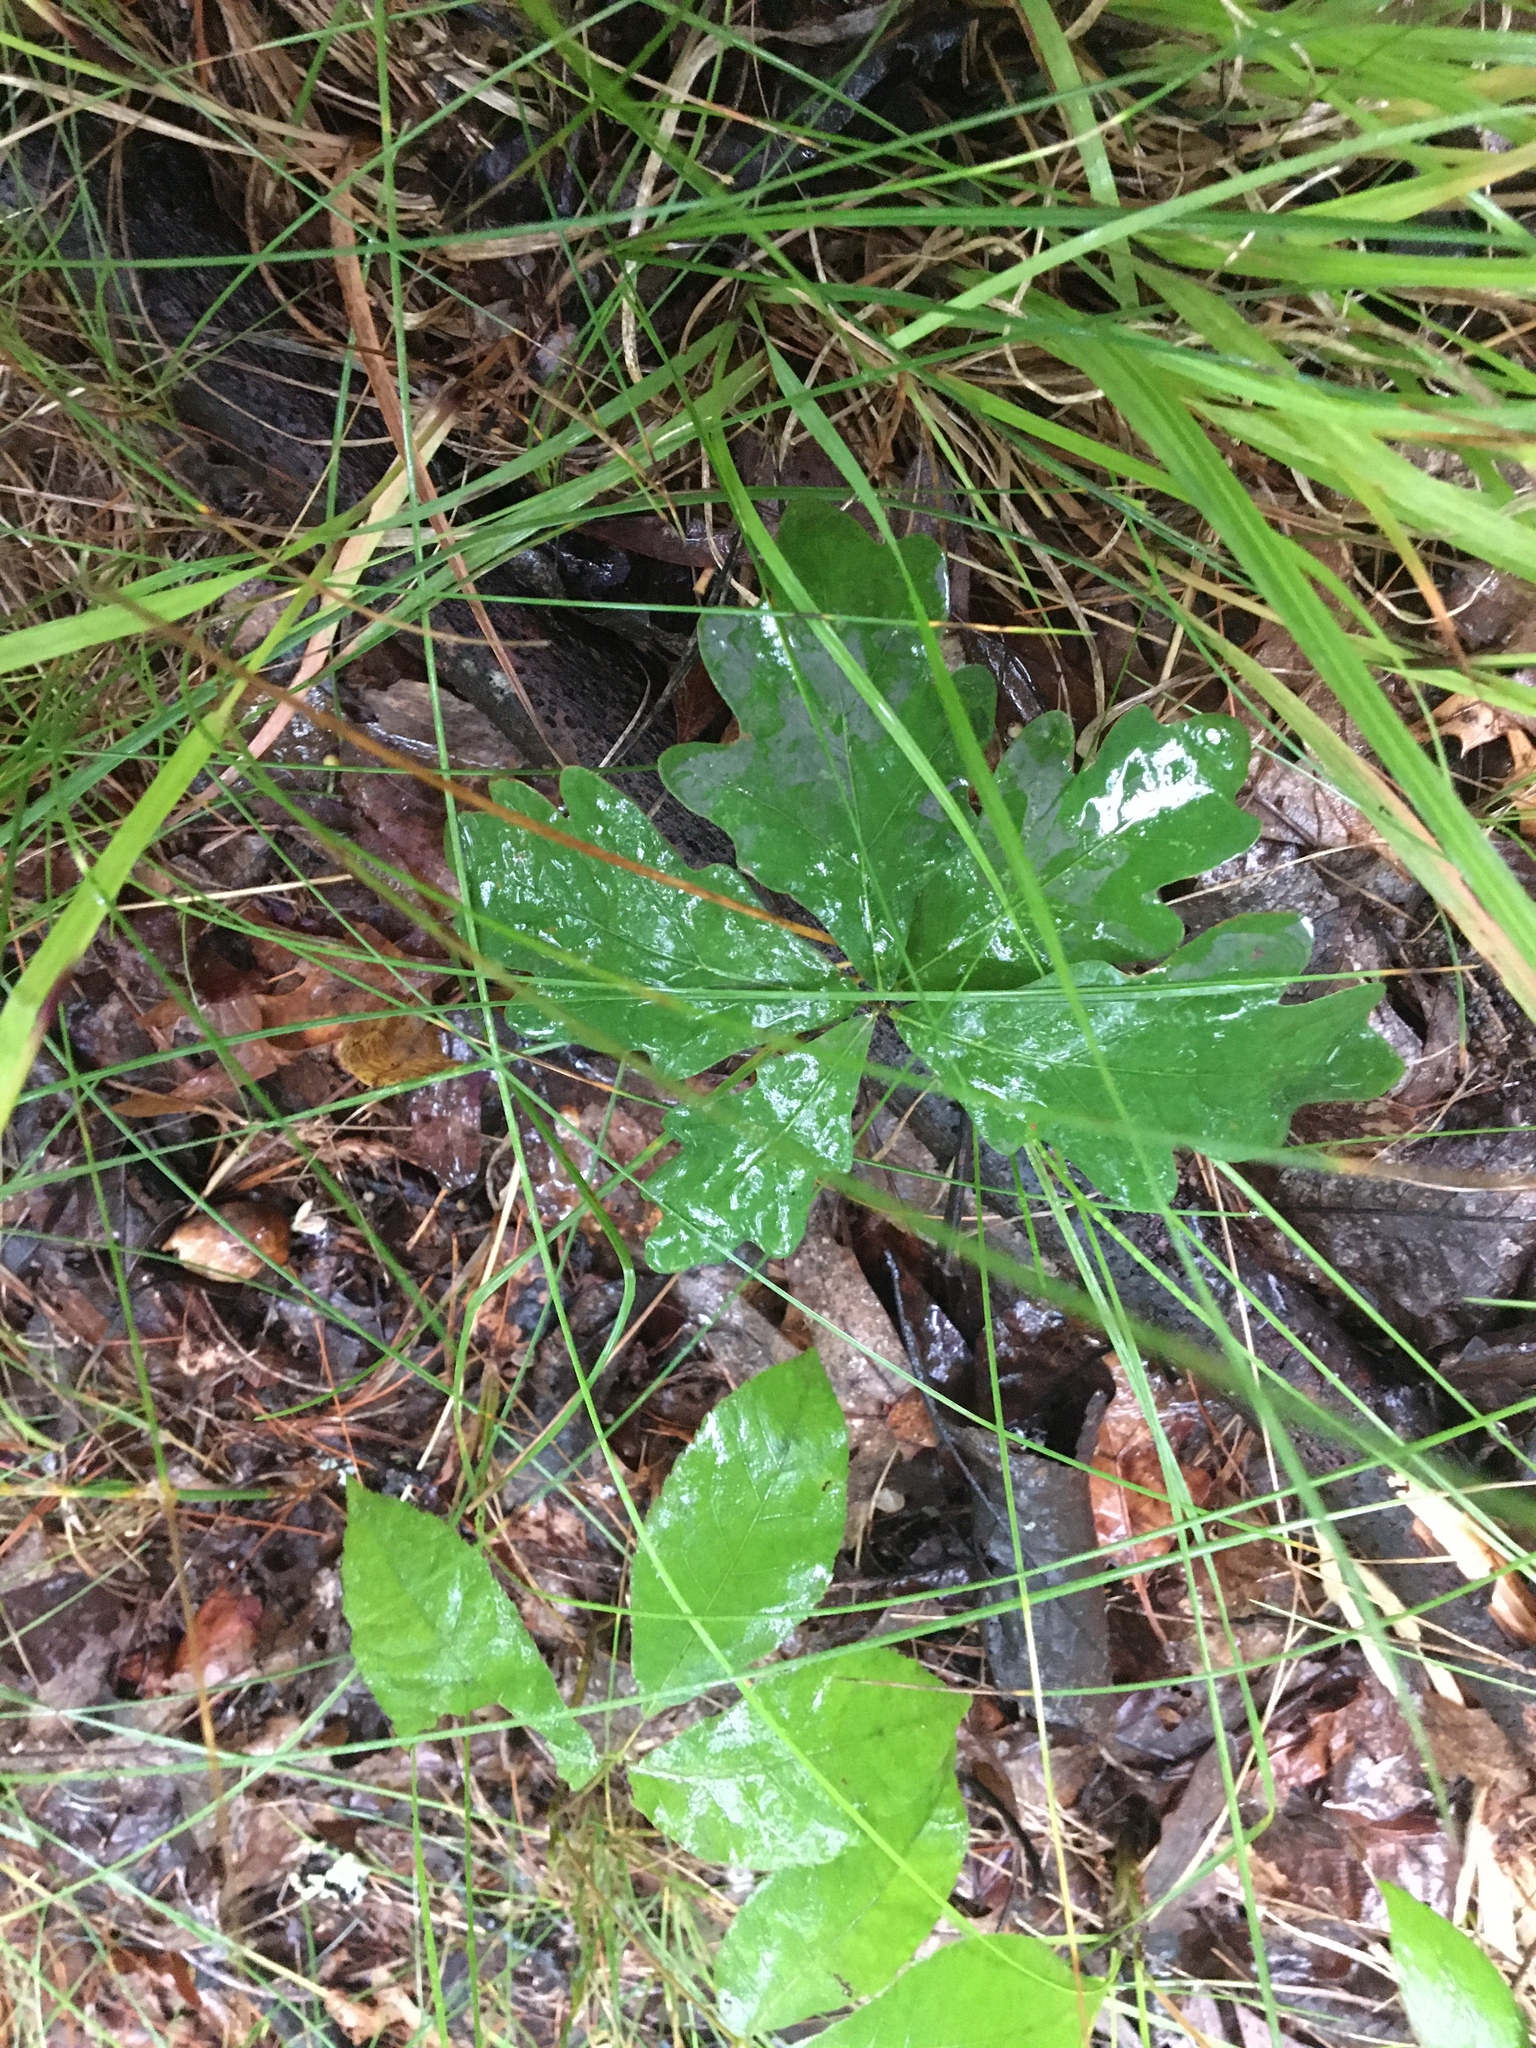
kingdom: Plantae
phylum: Tracheophyta
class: Magnoliopsida
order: Fagales
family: Fagaceae
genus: Quercus
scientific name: Quercus alba
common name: White oak
